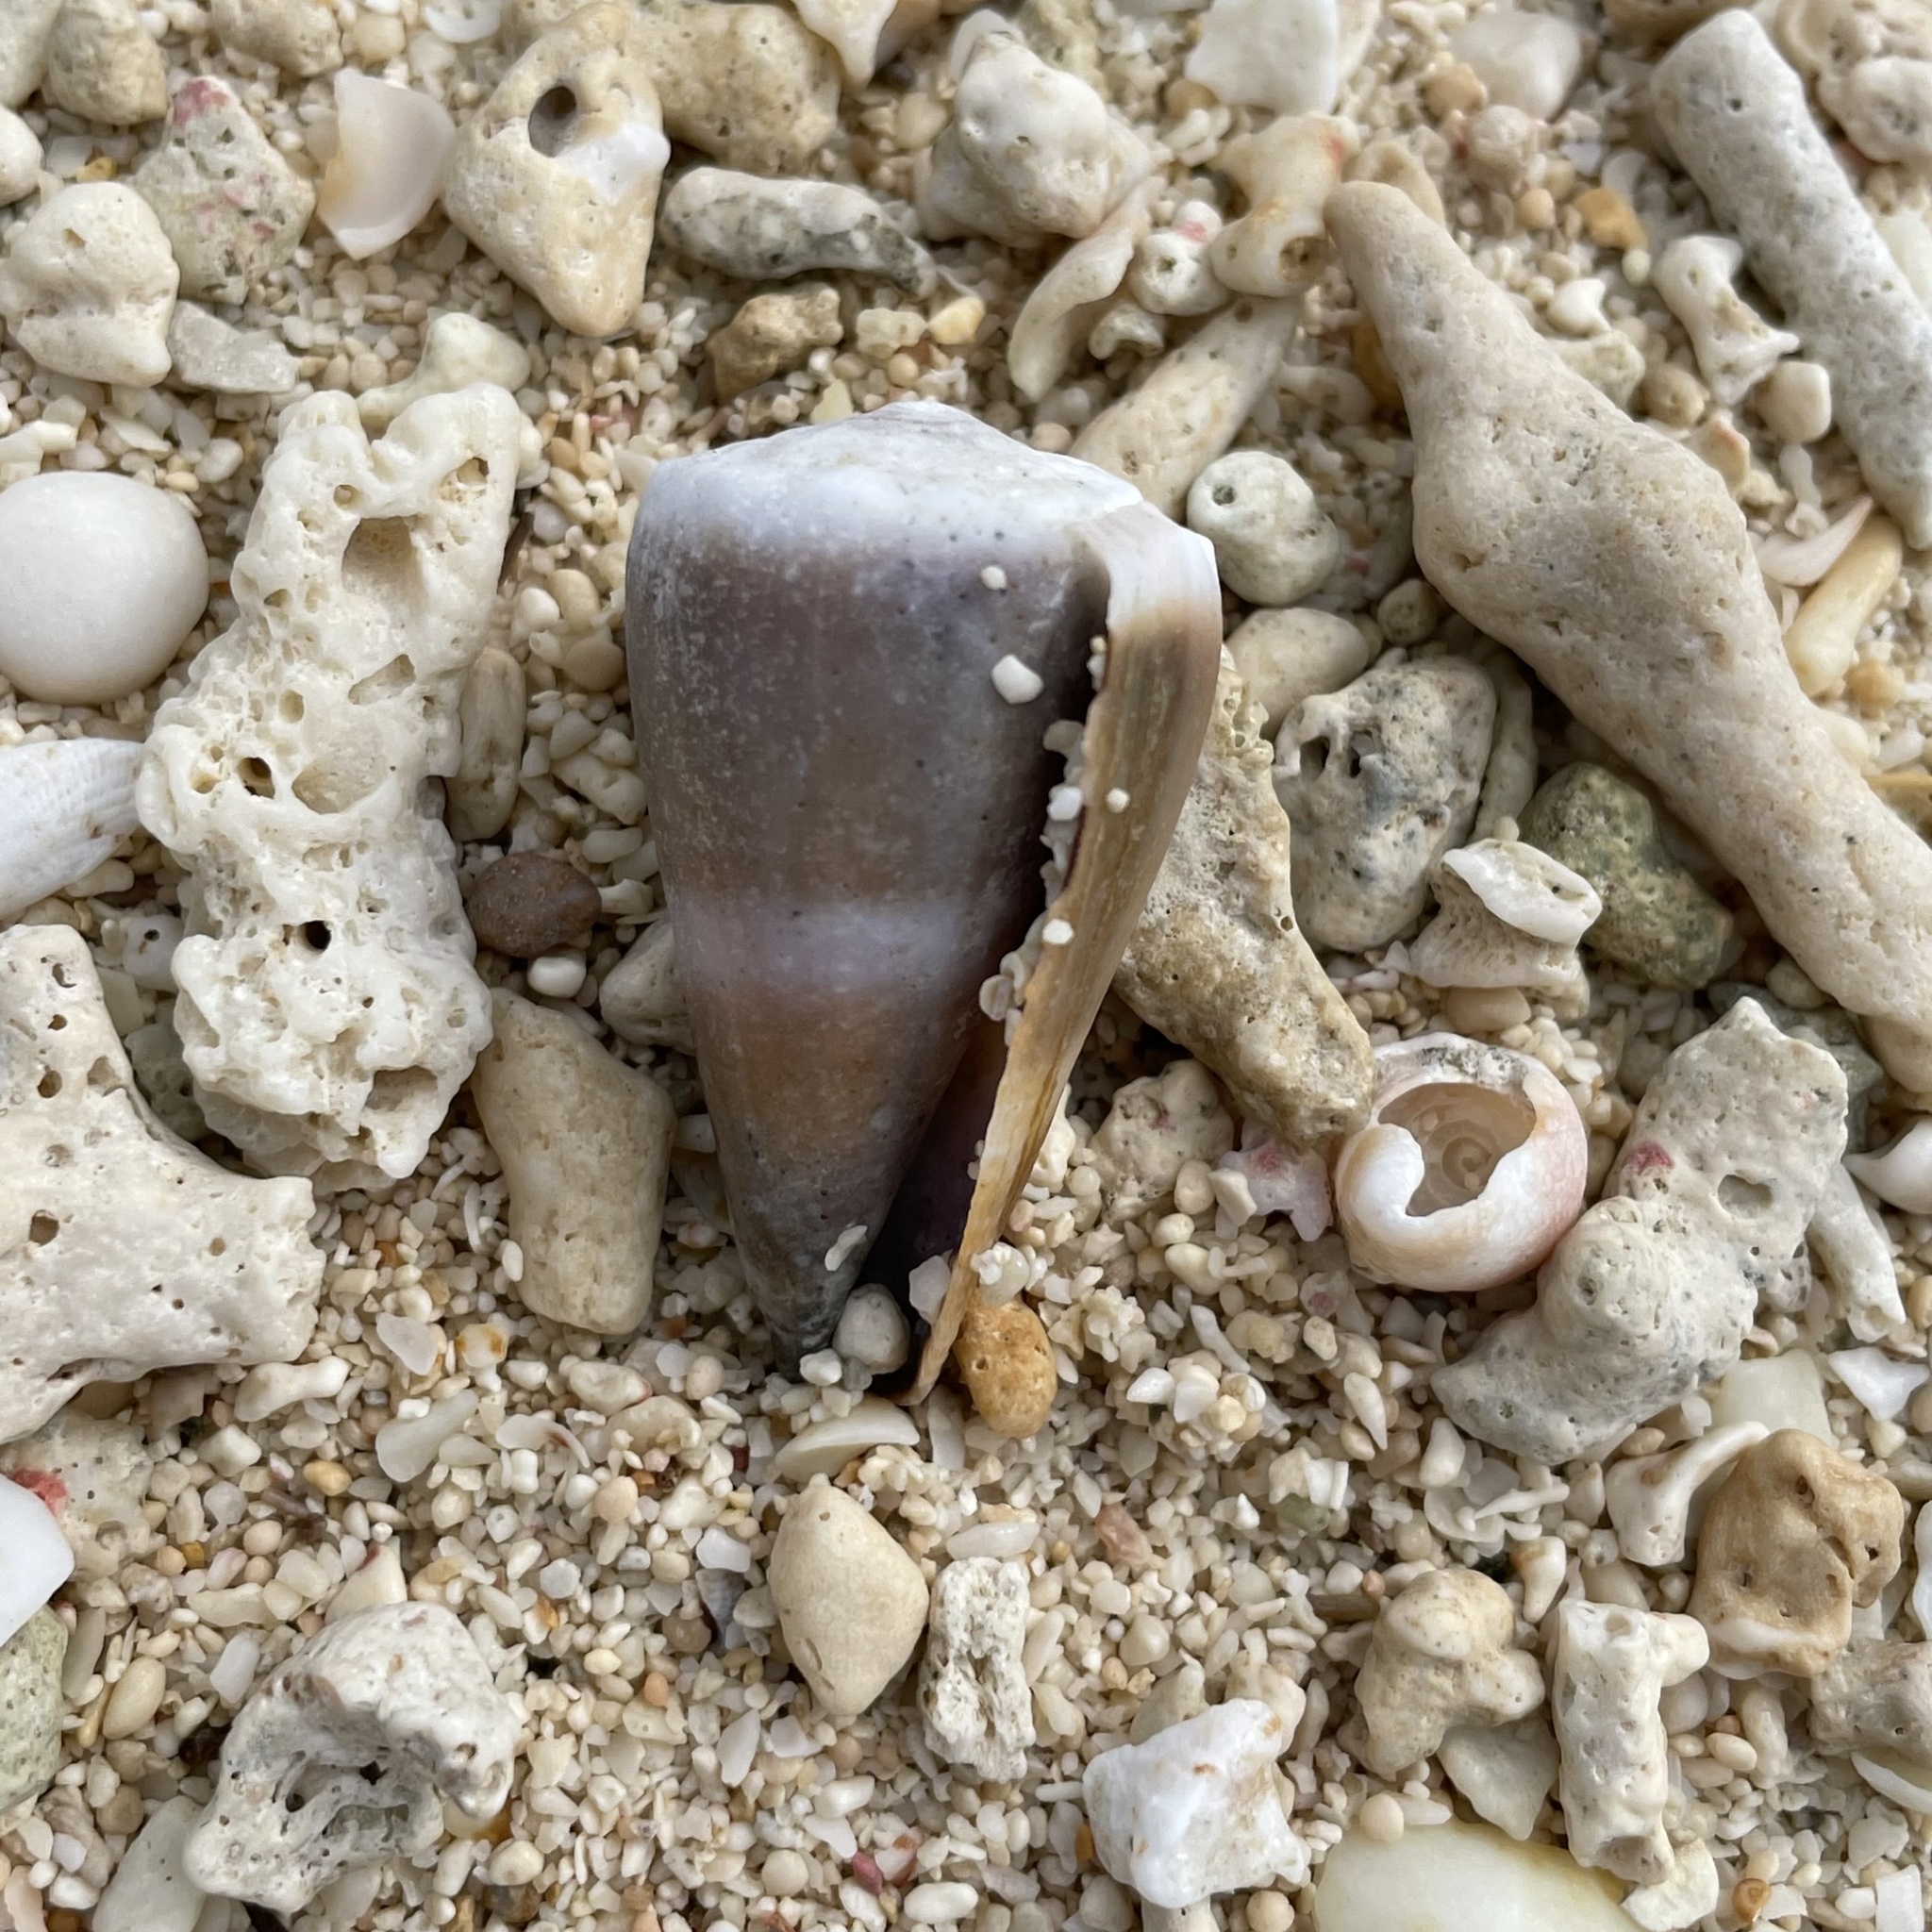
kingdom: Animalia
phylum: Mollusca
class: Gastropoda
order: Neogastropoda
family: Conidae
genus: Conus
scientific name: Conus lividus
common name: Livid cone
